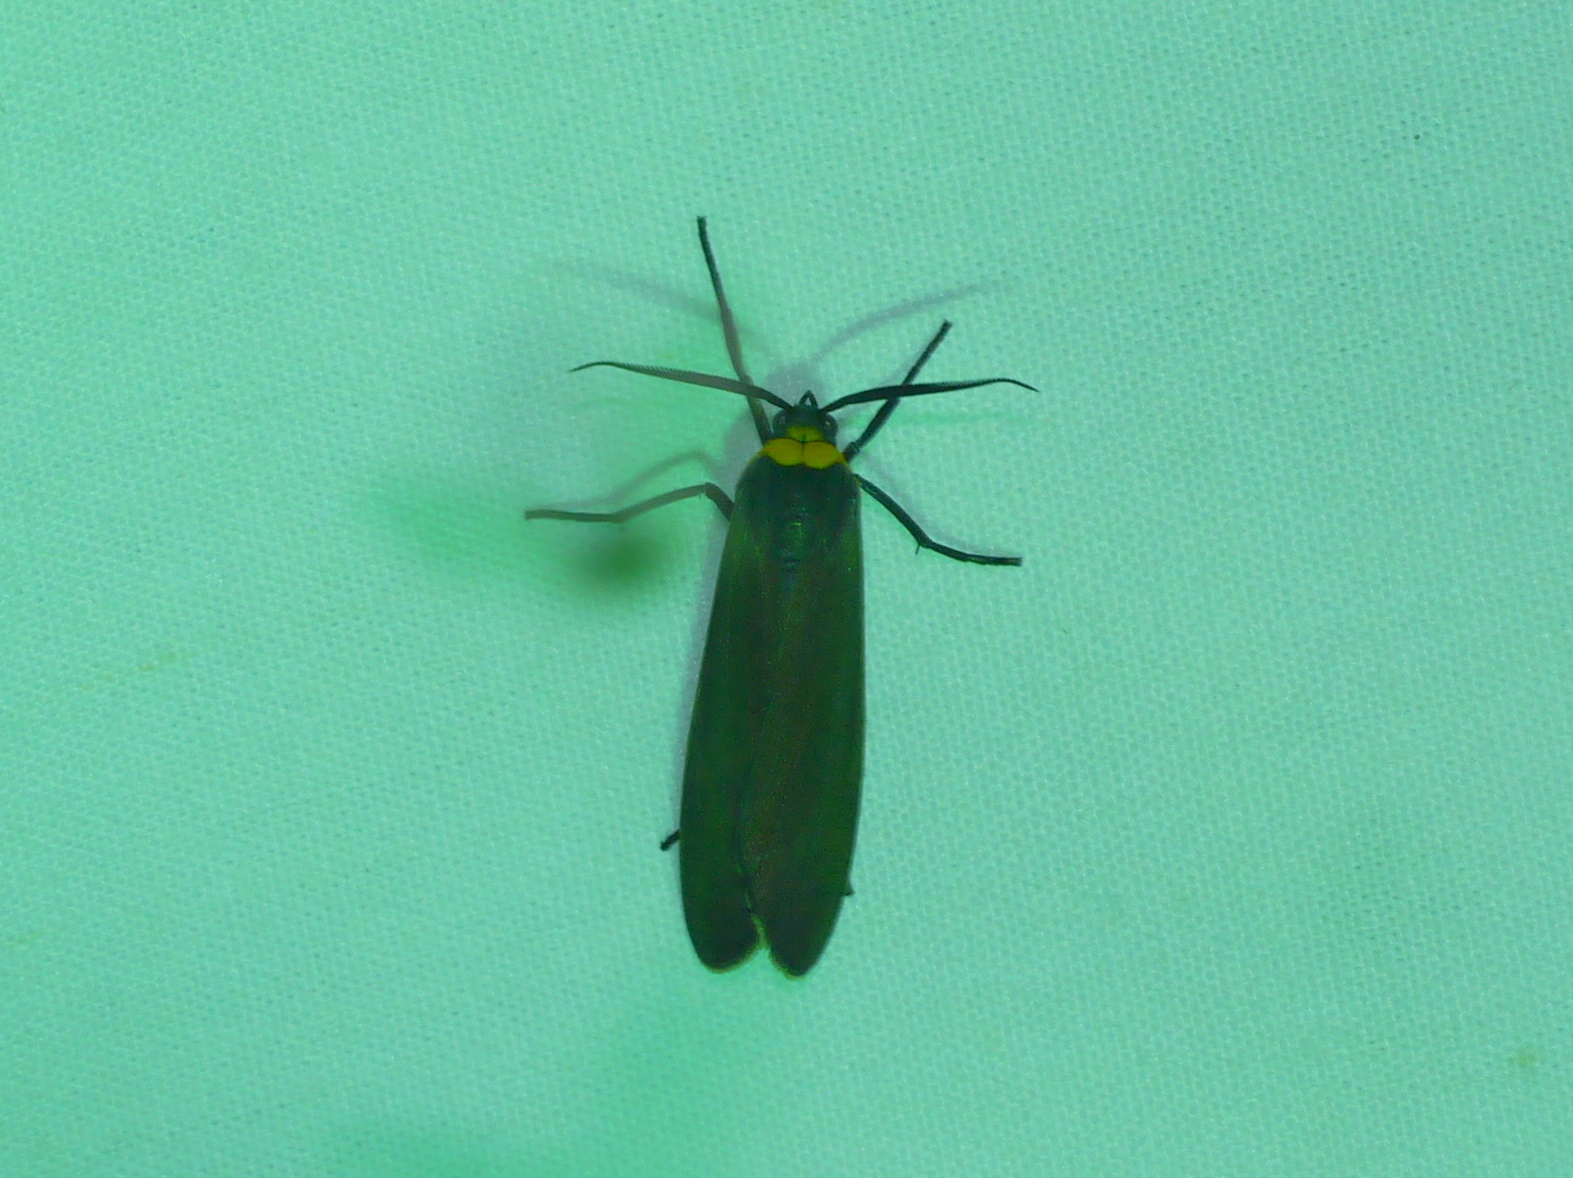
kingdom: Animalia
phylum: Arthropoda
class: Insecta
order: Lepidoptera
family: Erebidae
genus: Cisseps
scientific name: Cisseps fulvicollis
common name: Yellow-collared scape moth
